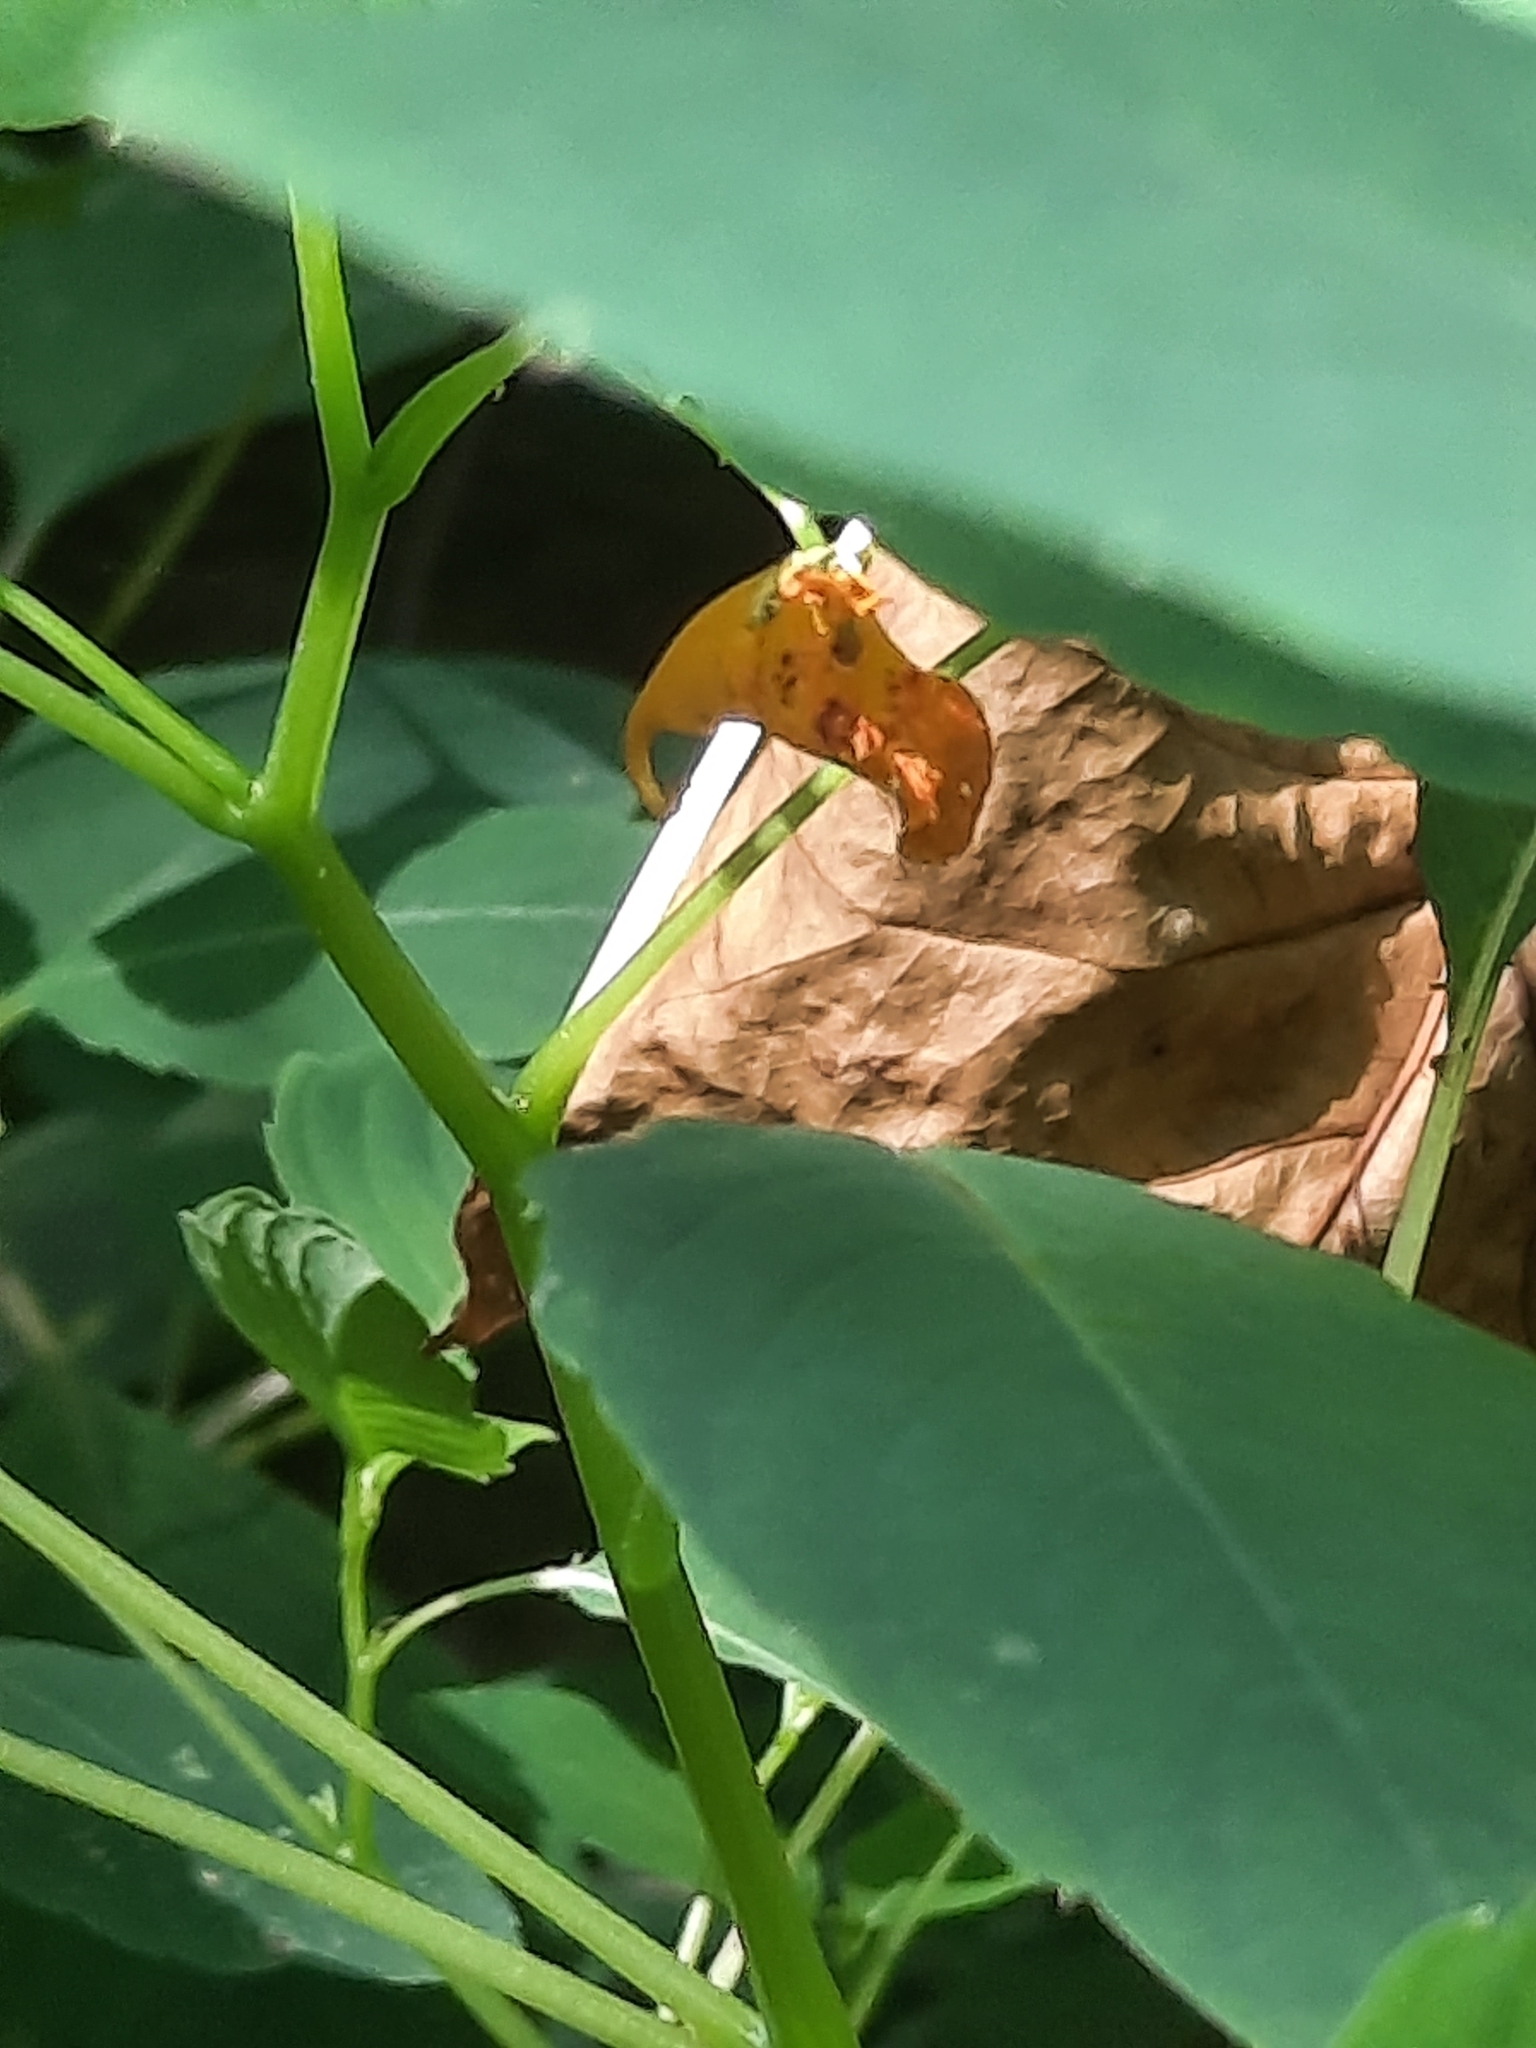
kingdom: Plantae
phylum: Tracheophyta
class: Magnoliopsida
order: Ericales
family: Balsaminaceae
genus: Impatiens
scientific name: Impatiens capensis
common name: Orange balsam
